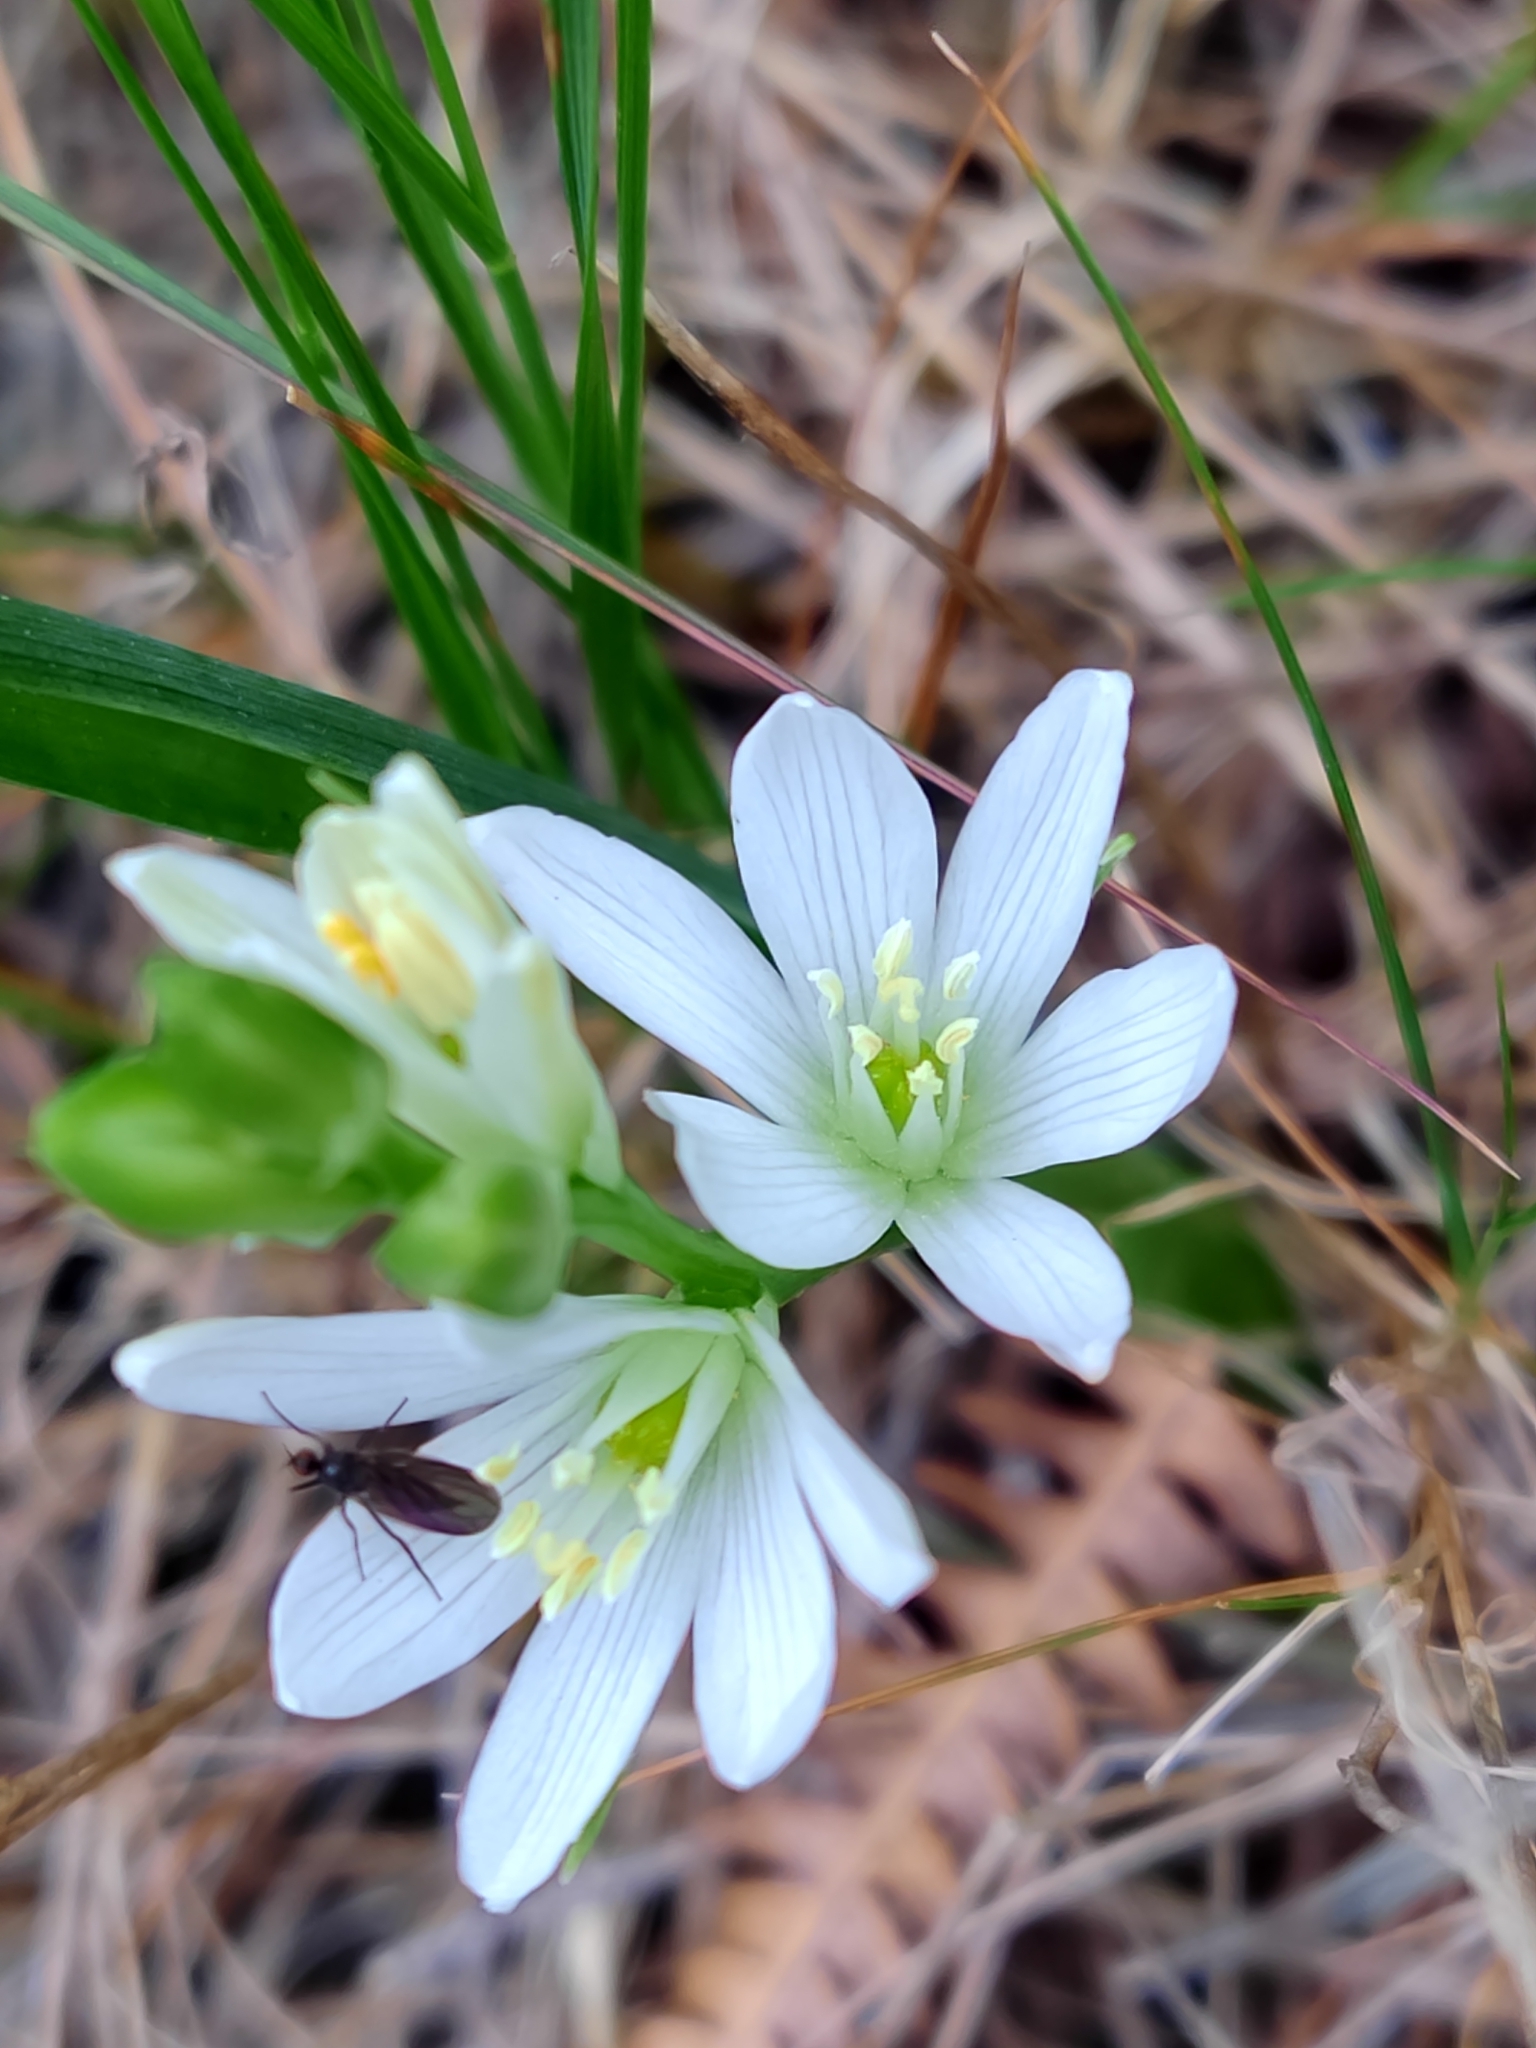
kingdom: Plantae
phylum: Tracheophyta
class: Liliopsida
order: Asparagales
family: Asparagaceae
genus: Ornithogalum
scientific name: Ornithogalum concinnum
